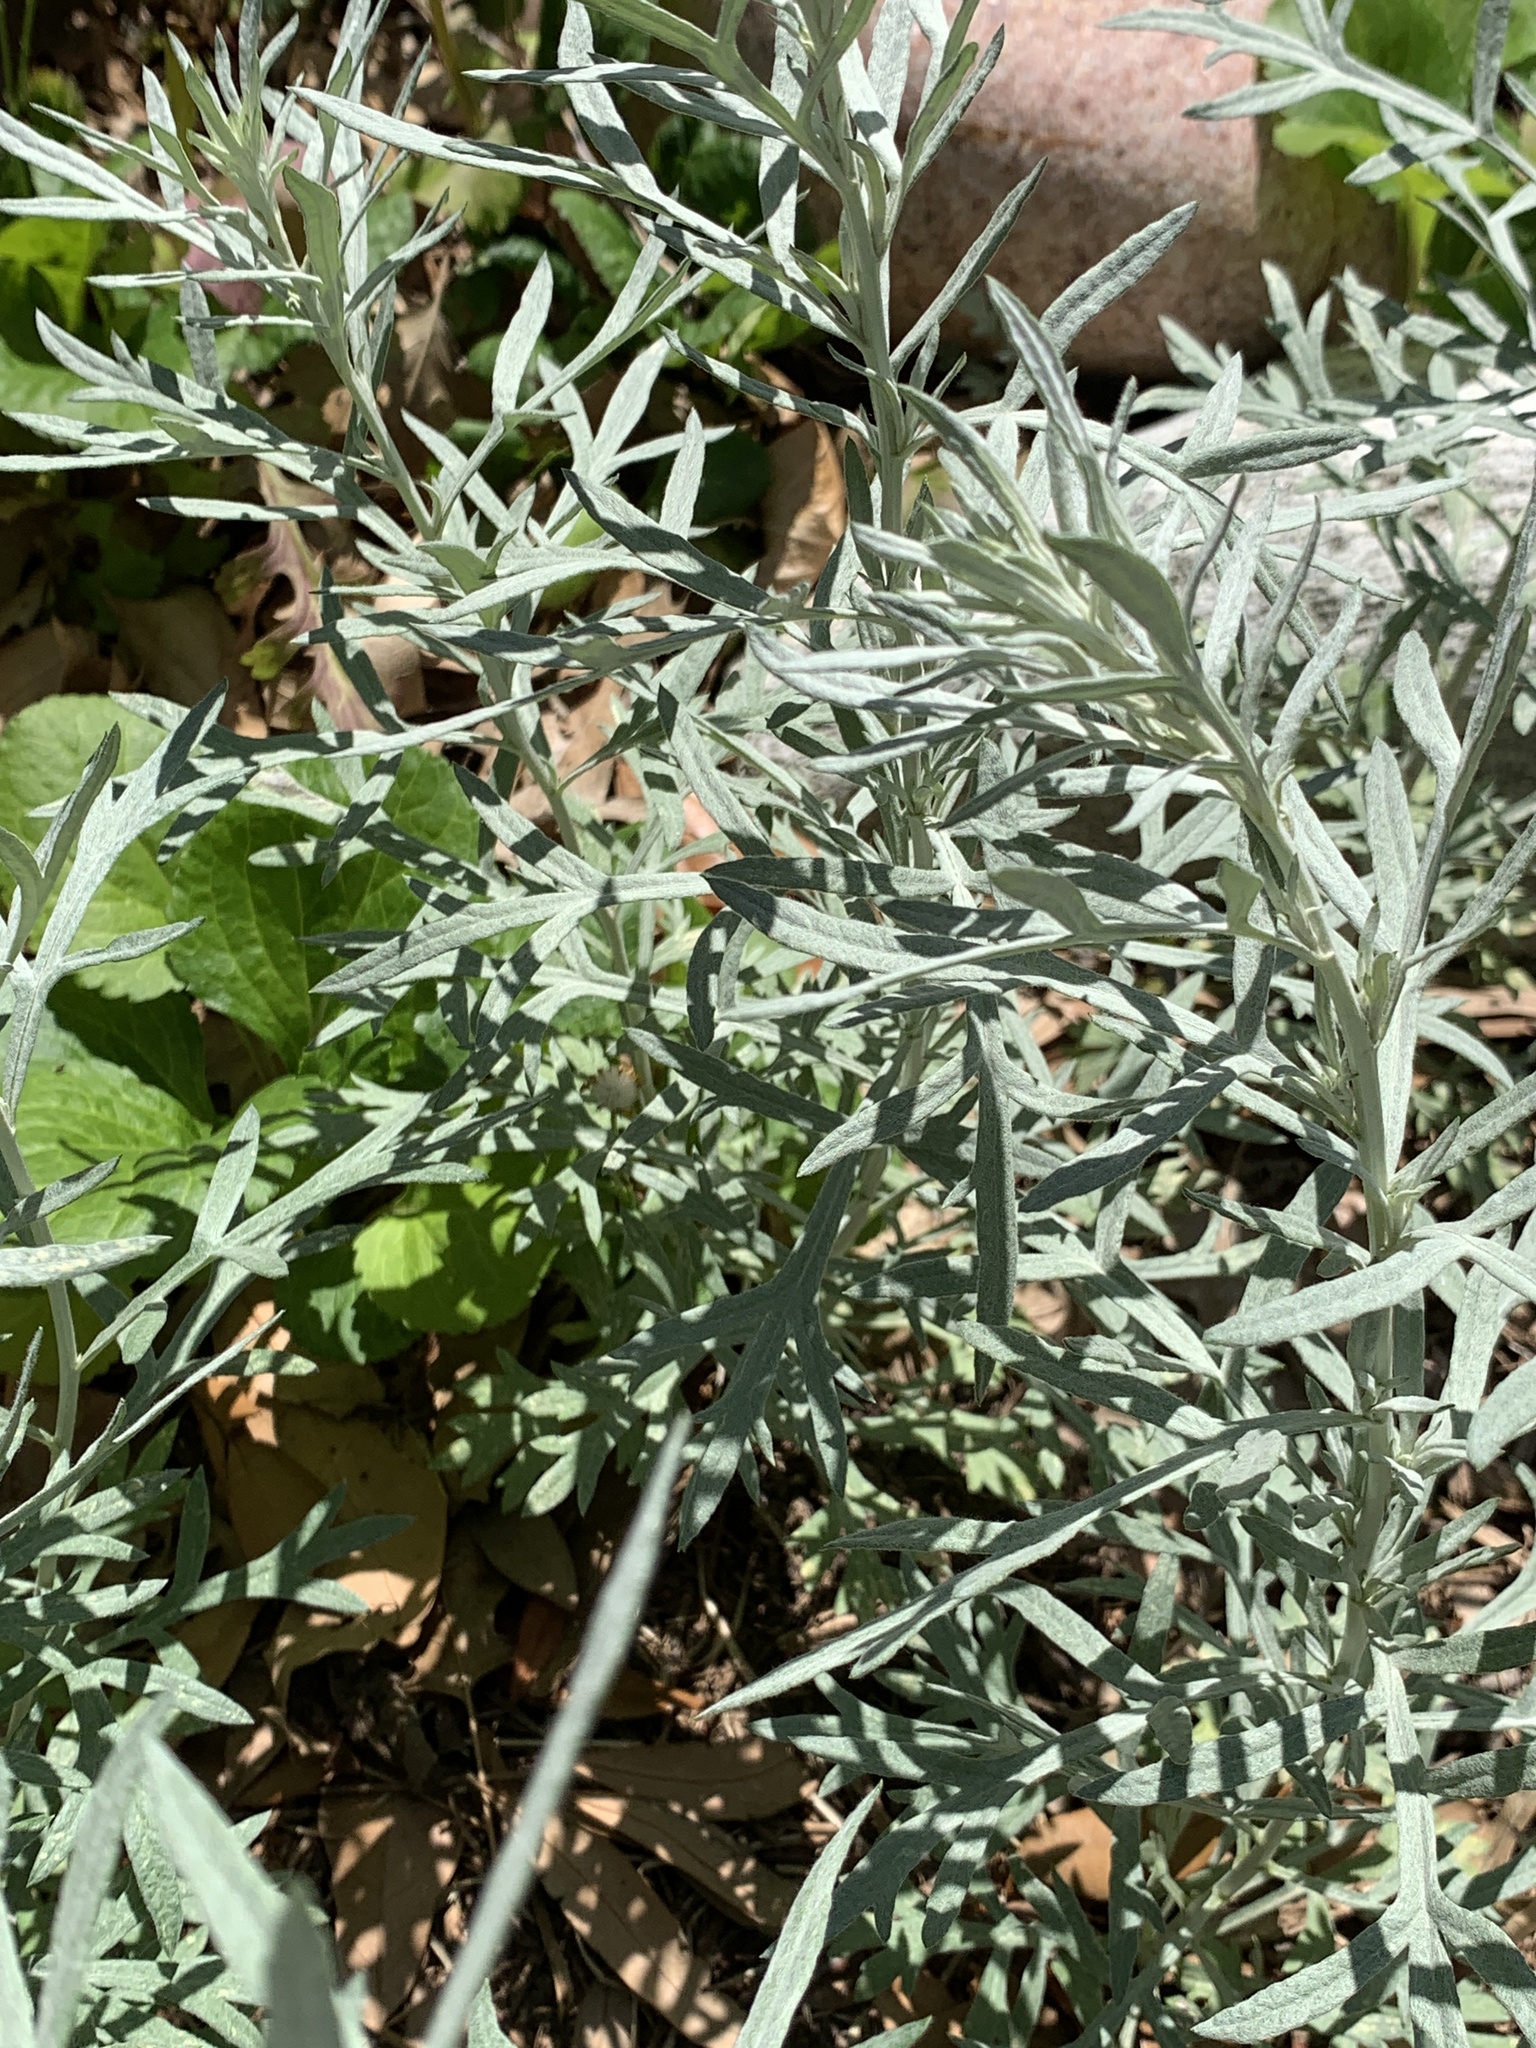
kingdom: Plantae
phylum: Tracheophyta
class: Magnoliopsida
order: Asterales
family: Asteraceae
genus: Artemisia
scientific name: Artemisia ludoviciana
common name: Western mugwort
